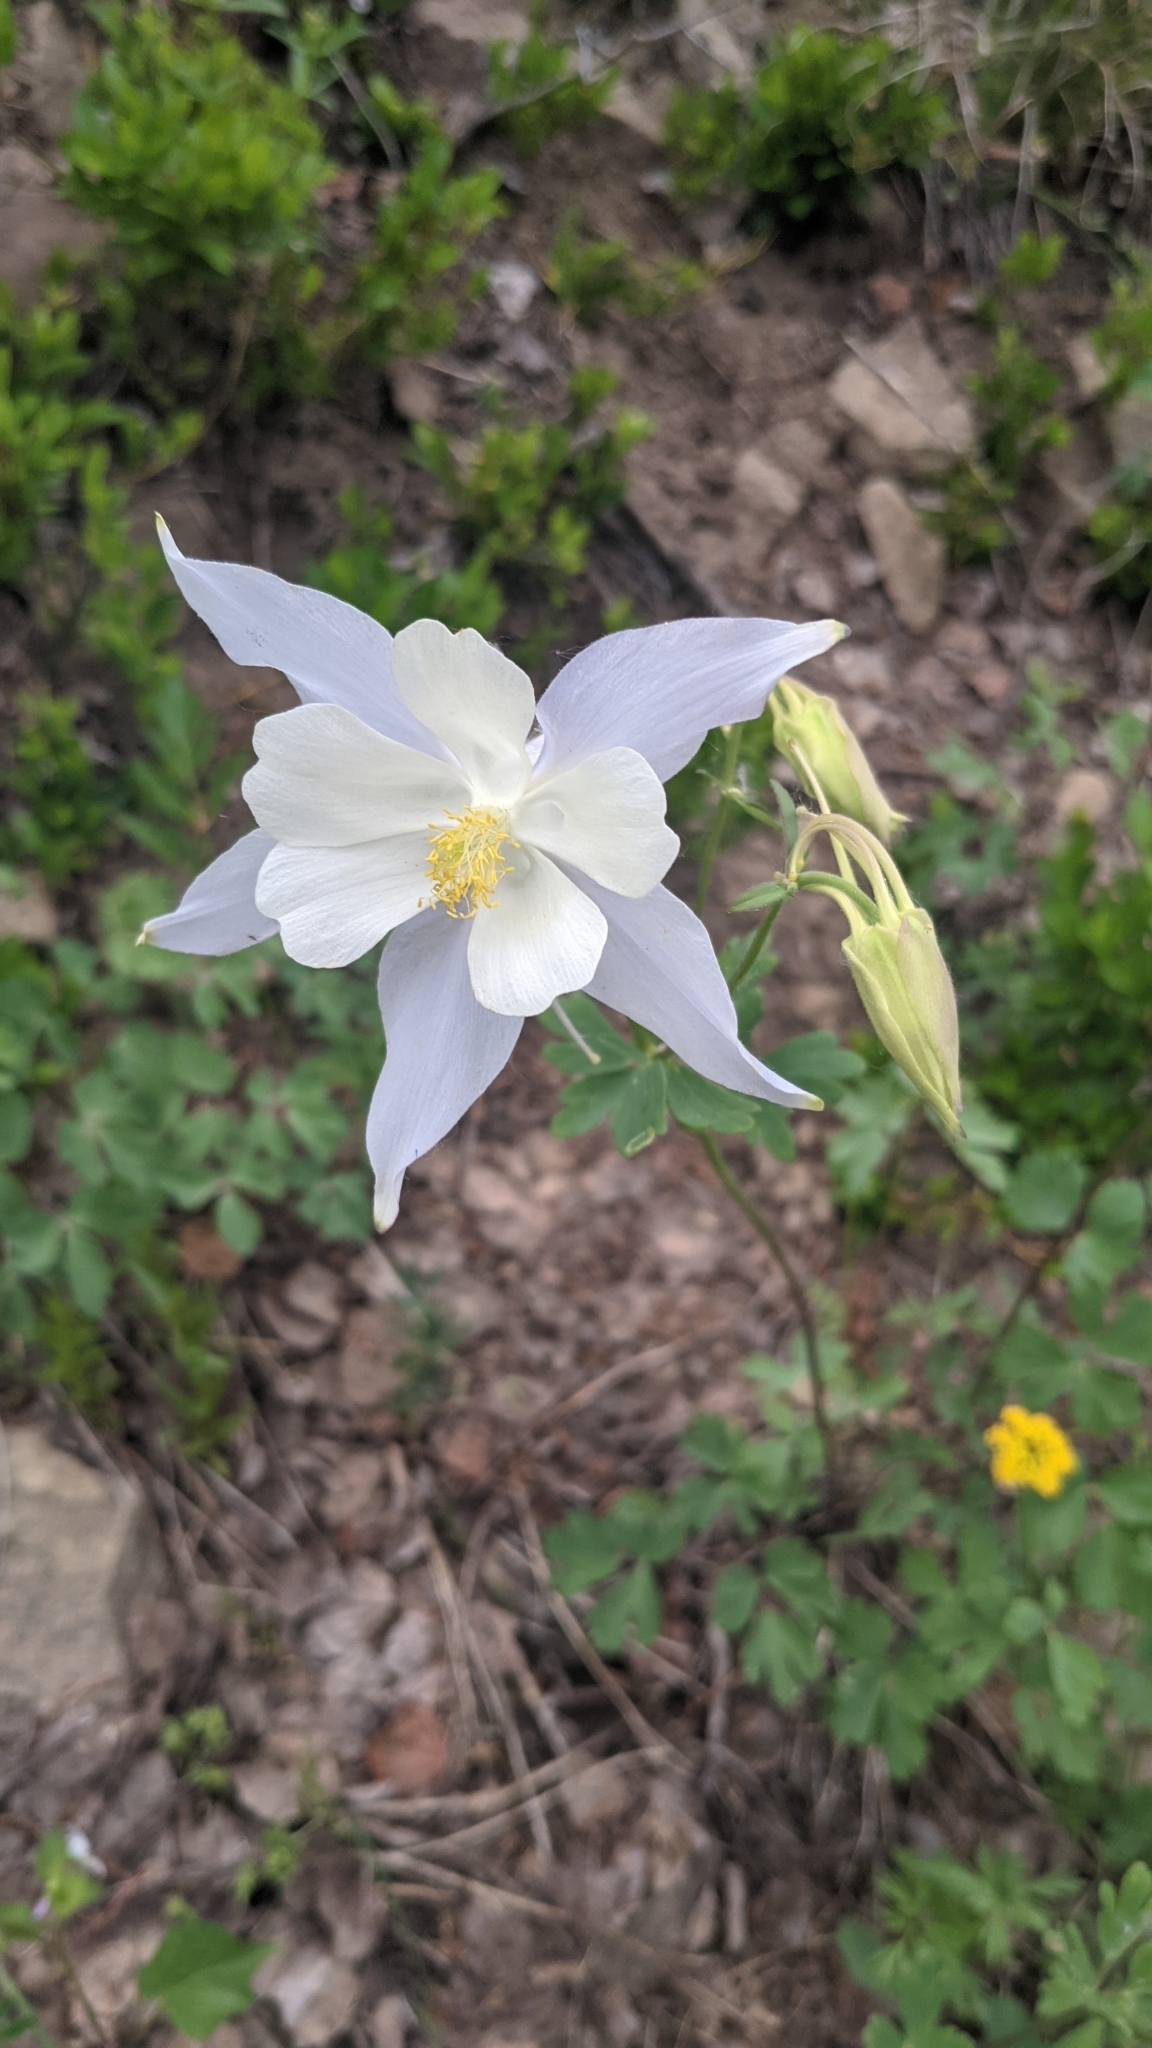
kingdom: Plantae
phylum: Tracheophyta
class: Magnoliopsida
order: Ranunculales
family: Ranunculaceae
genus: Aquilegia
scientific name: Aquilegia coerulea
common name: Rocky mountain columbine
